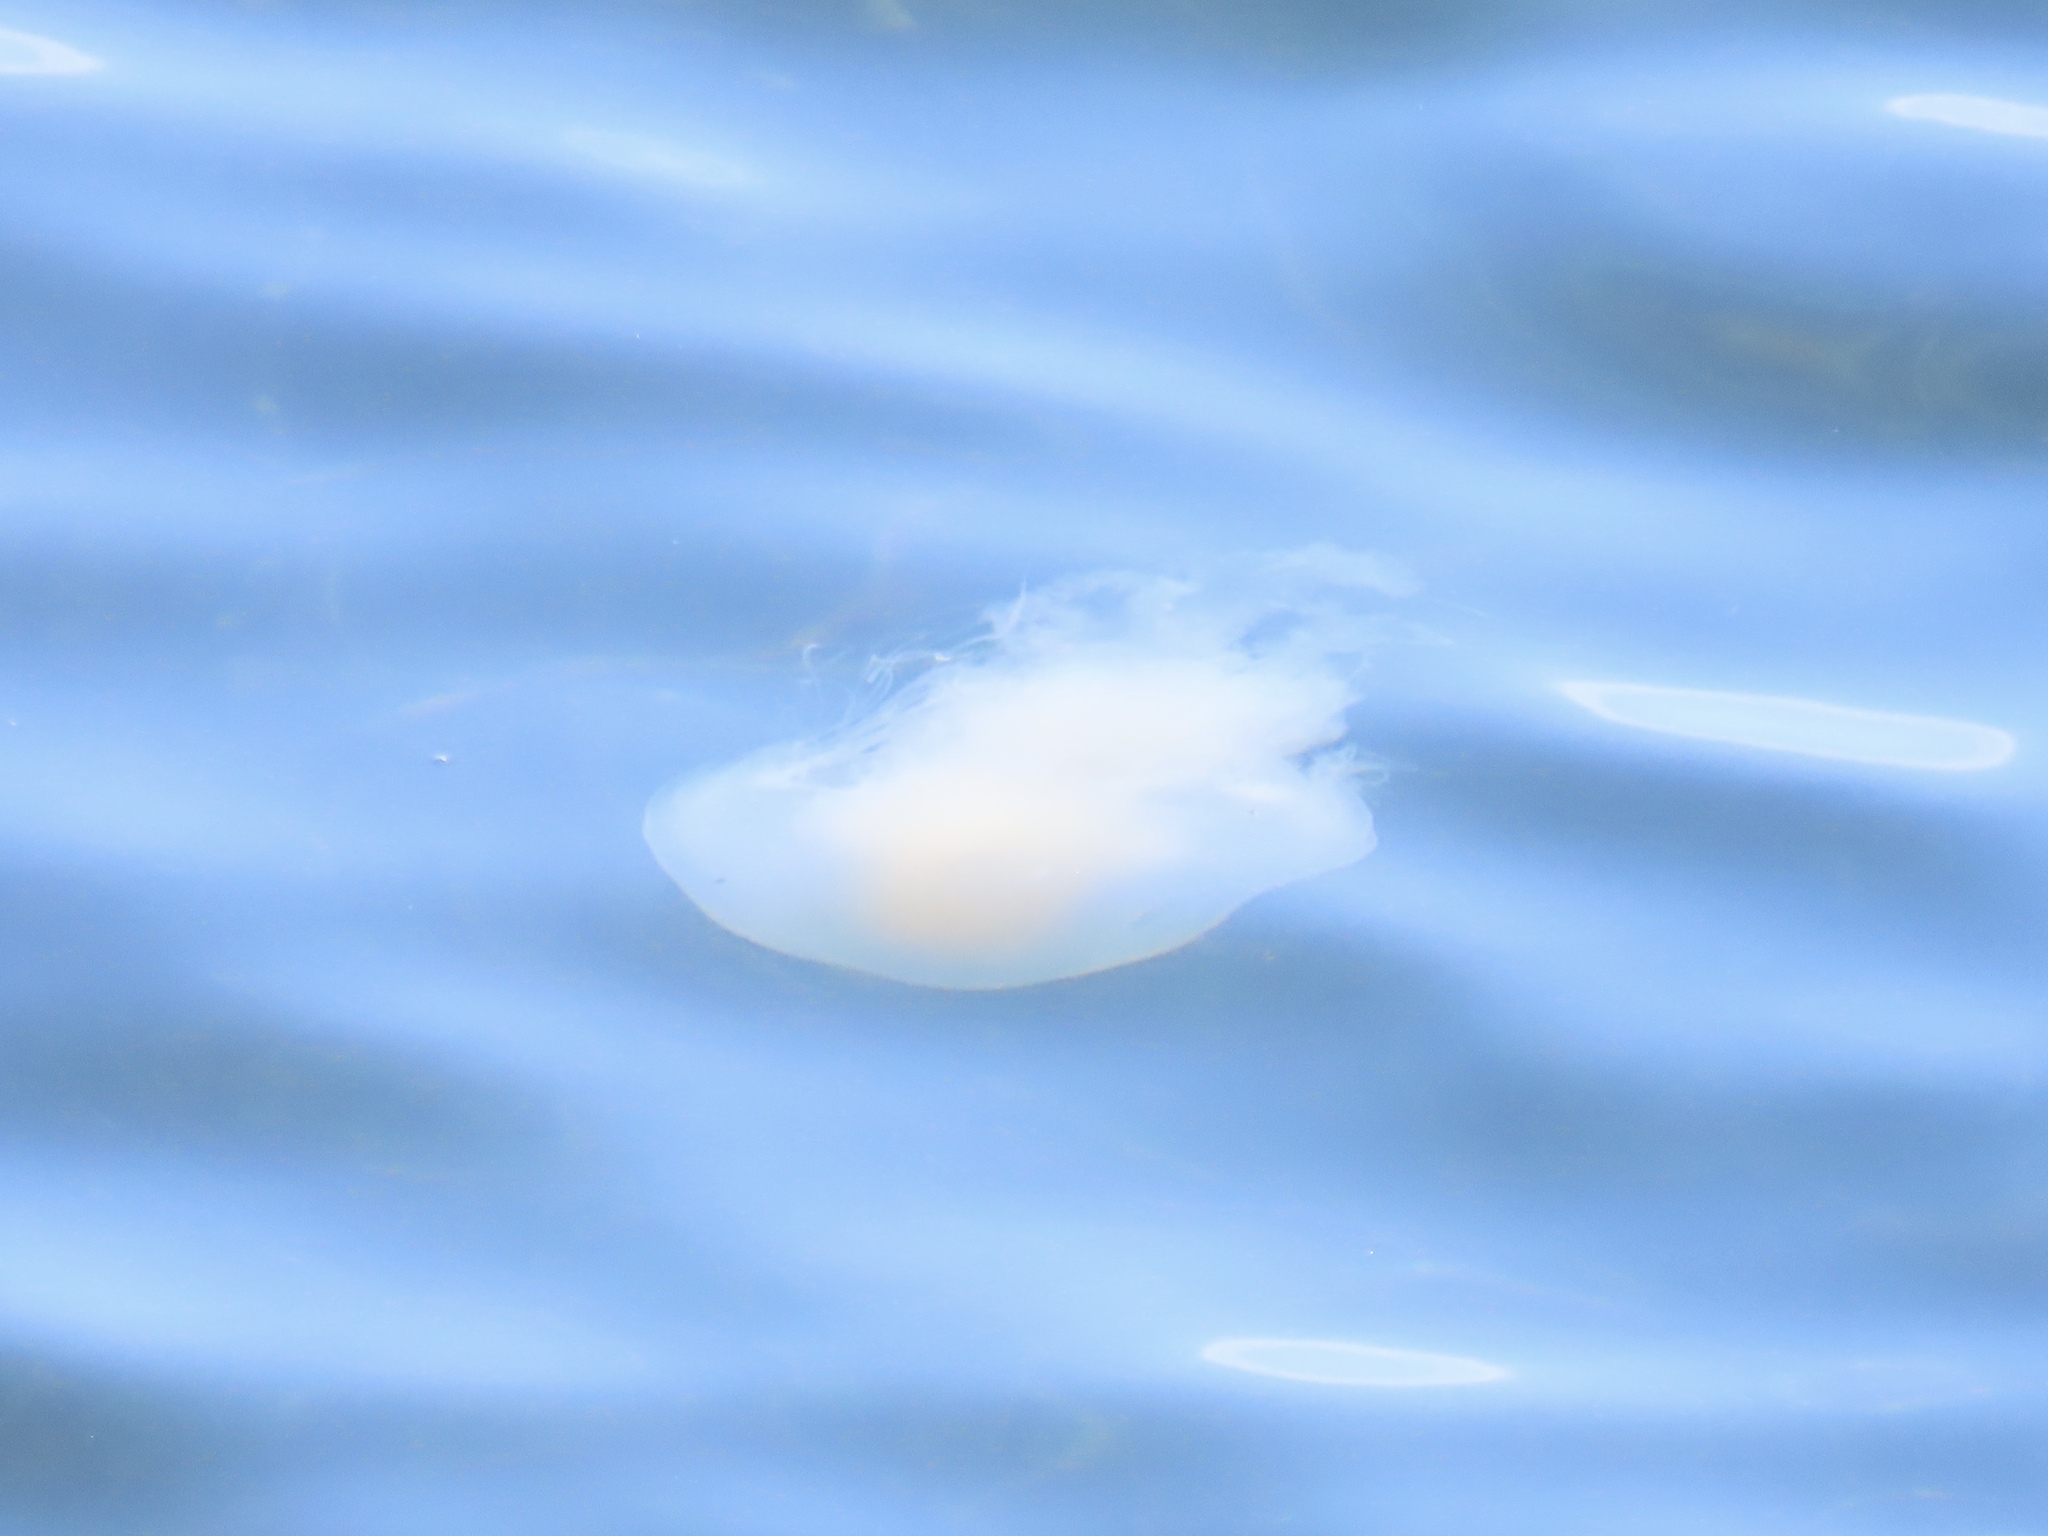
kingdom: Animalia
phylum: Cnidaria
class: Scyphozoa
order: Semaeostomeae
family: Phacellophoridae
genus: Phacellophora
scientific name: Phacellophora camtschatica
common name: Fried-egg jellyfish
